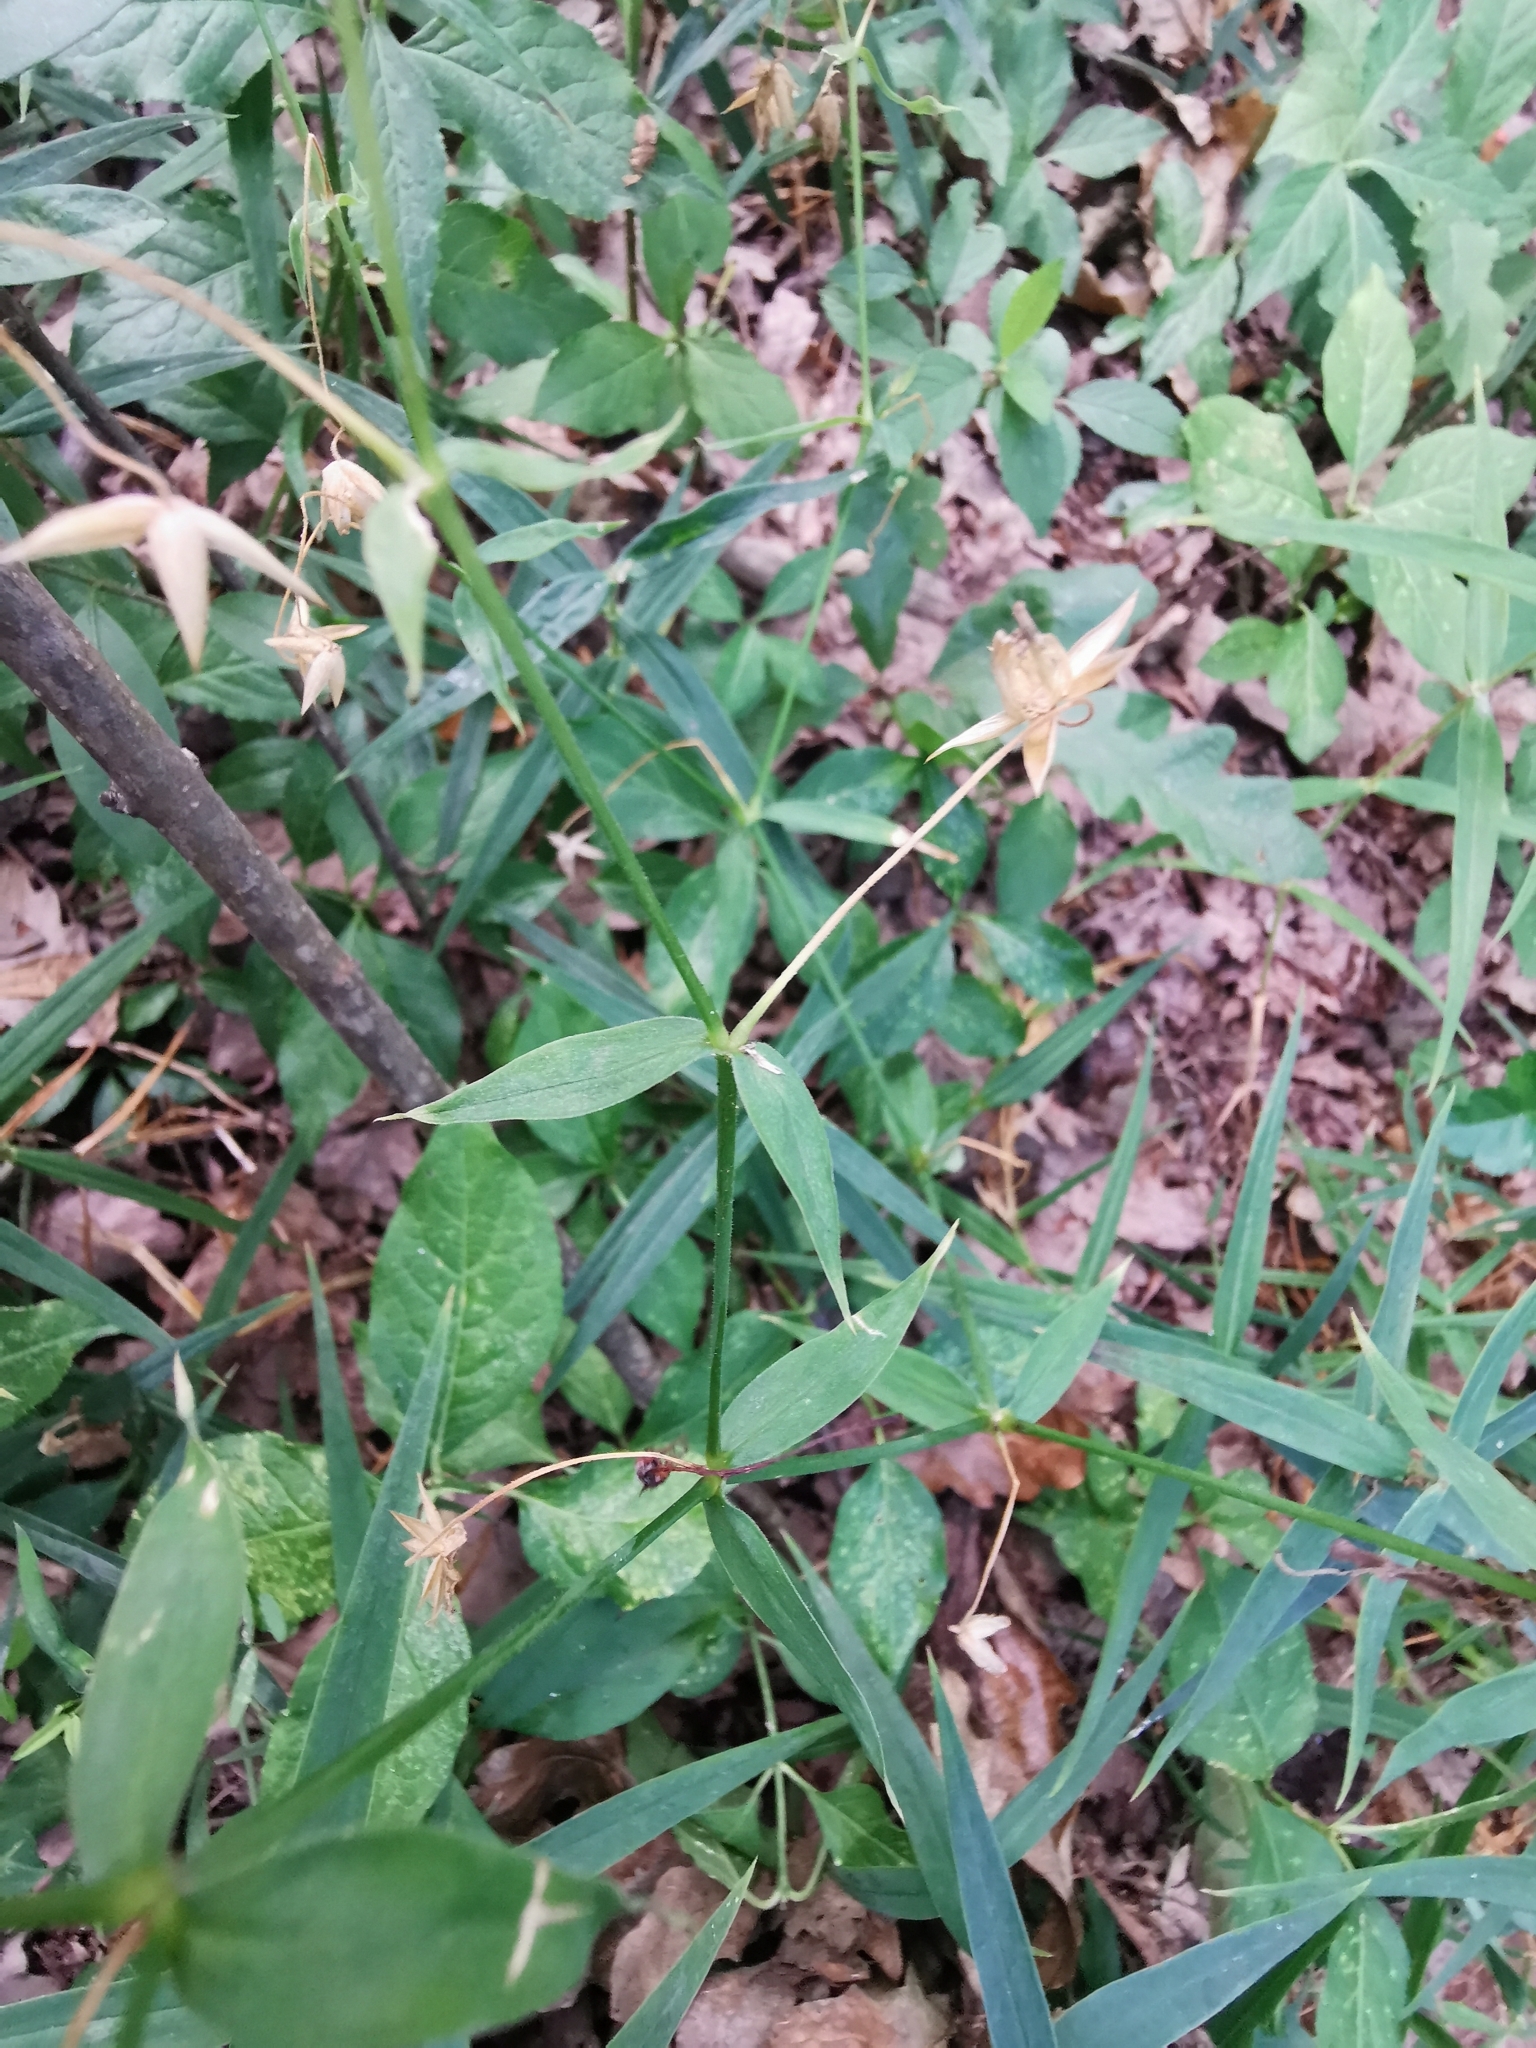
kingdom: Plantae
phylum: Tracheophyta
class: Magnoliopsida
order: Caryophyllales
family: Caryophyllaceae
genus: Rabelera
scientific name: Rabelera holostea
